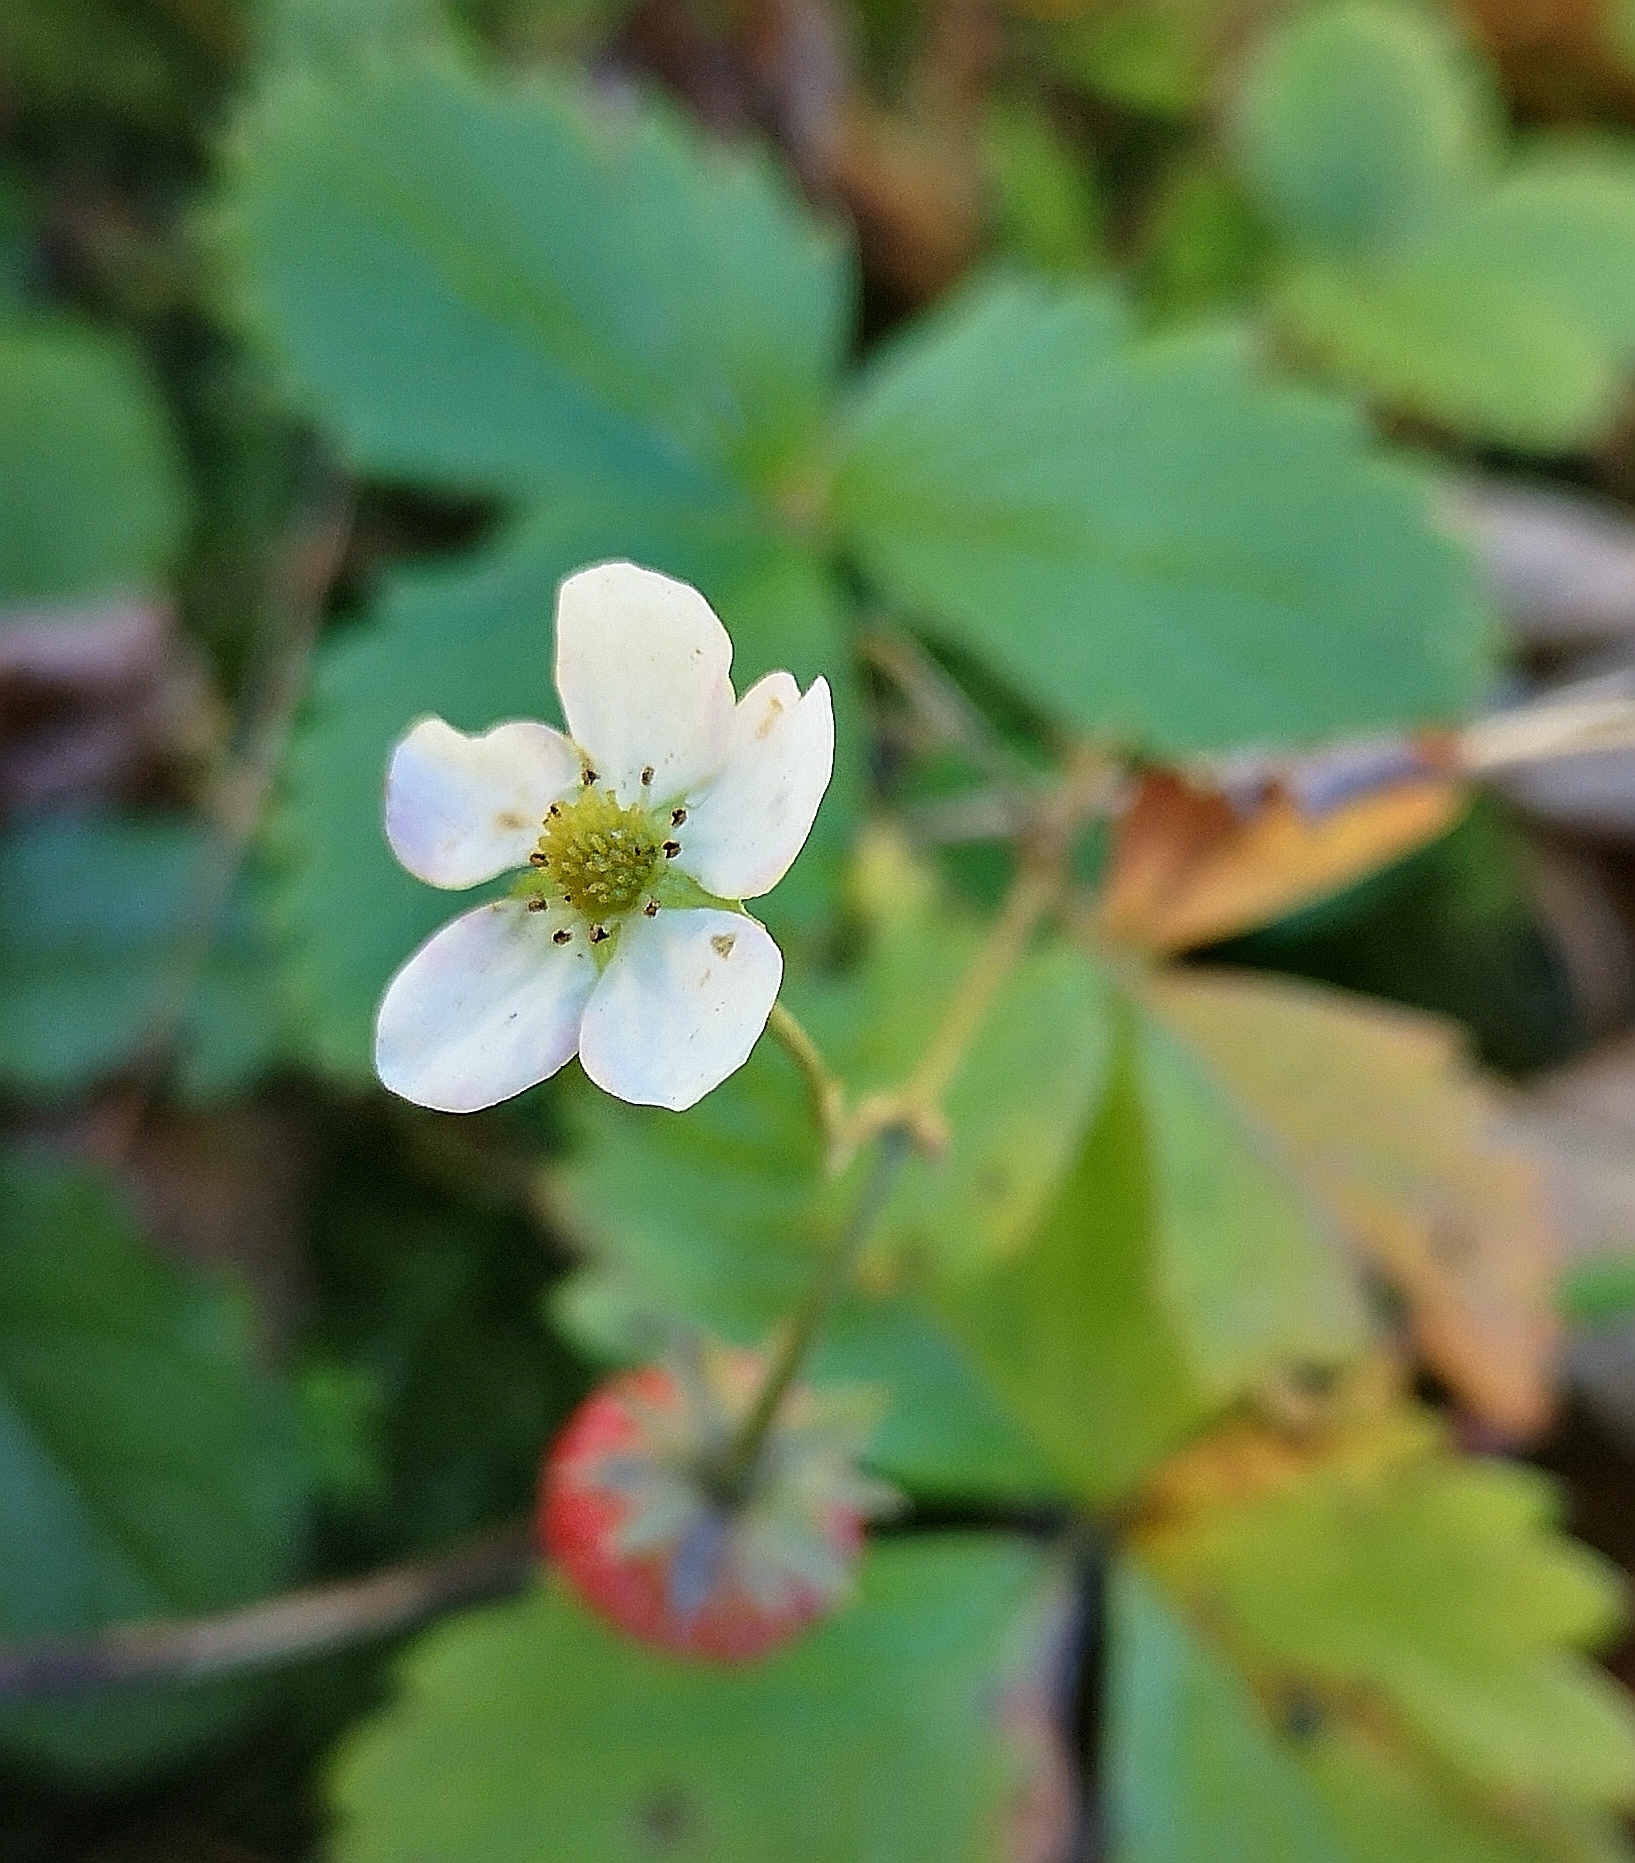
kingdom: Plantae
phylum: Tracheophyta
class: Magnoliopsida
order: Rosales
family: Rosaceae
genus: Fragaria
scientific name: Fragaria vesca
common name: Wild strawberry
